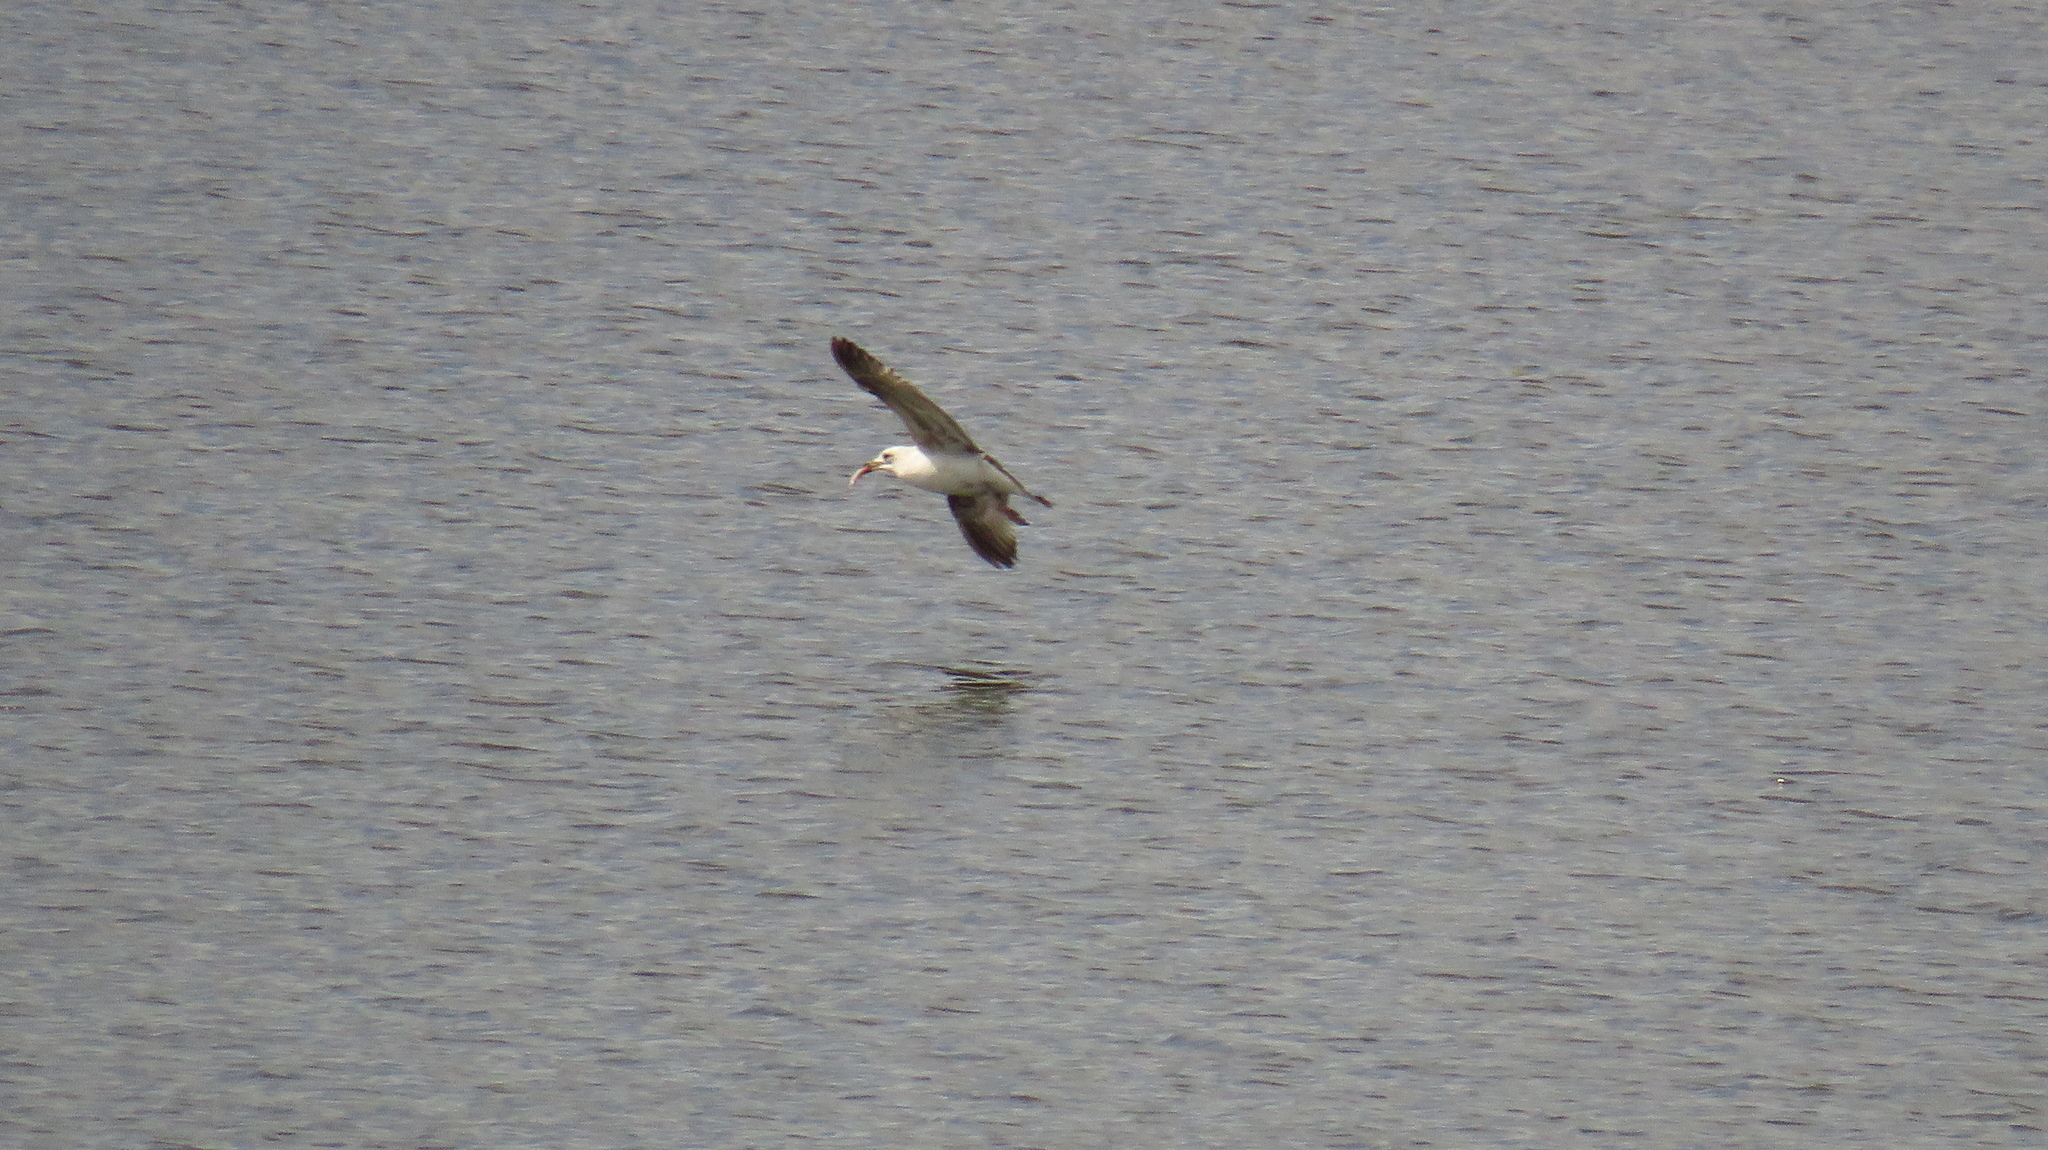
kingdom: Animalia
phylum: Chordata
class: Aves
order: Charadriiformes
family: Laridae
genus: Larus
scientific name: Larus canus
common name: Mew gull
